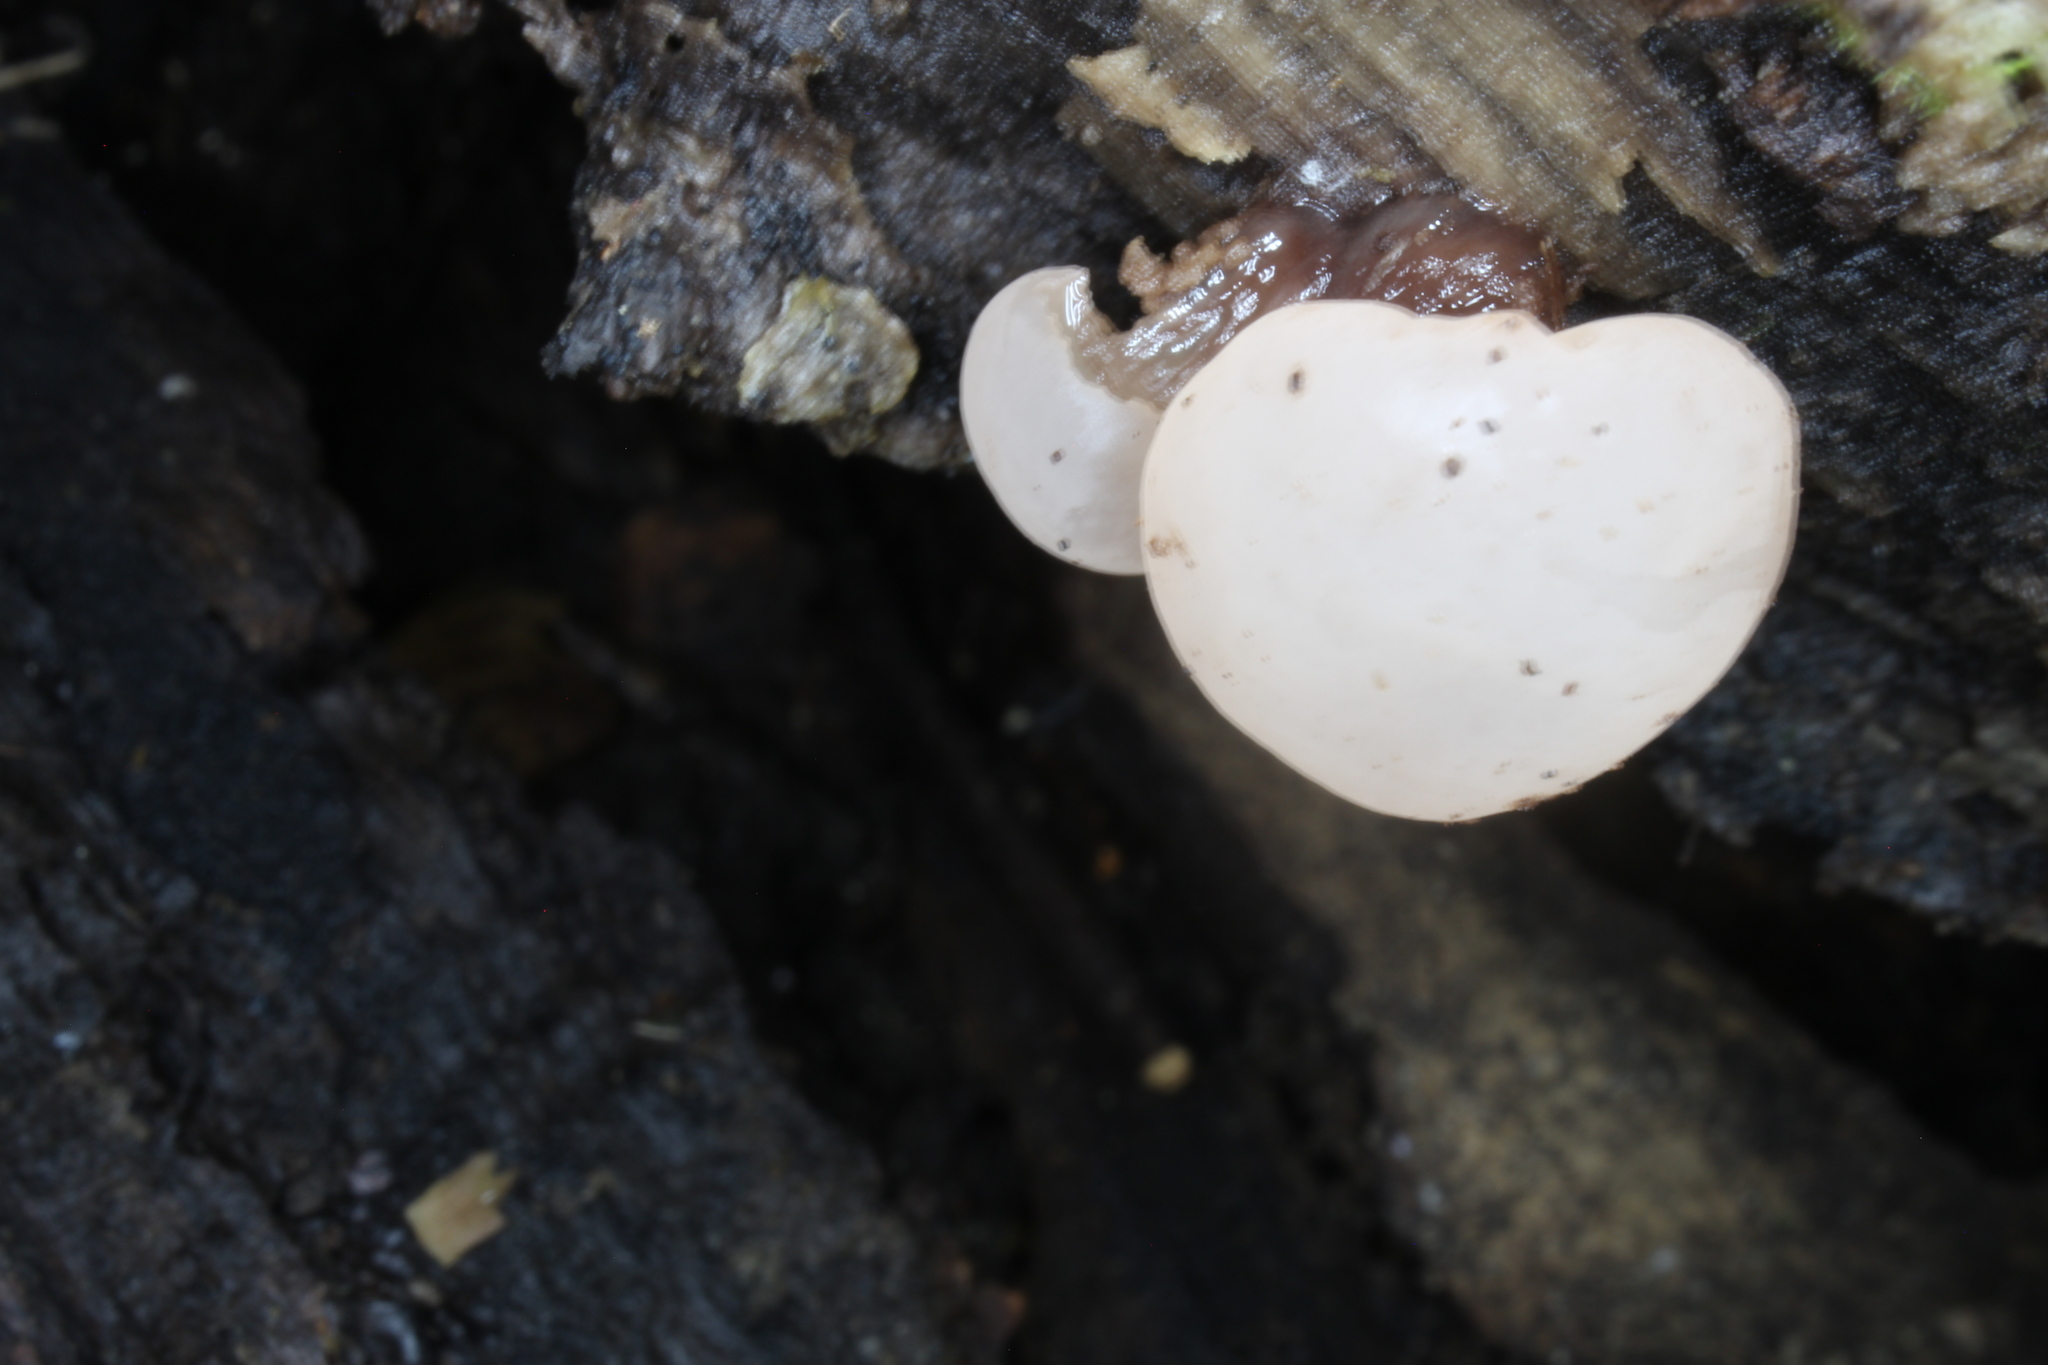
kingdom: Fungi
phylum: Ascomycota
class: Leotiomycetes
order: Helotiales
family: Bryoglossaceae
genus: Neocudoniella
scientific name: Neocudoniella albiceps
